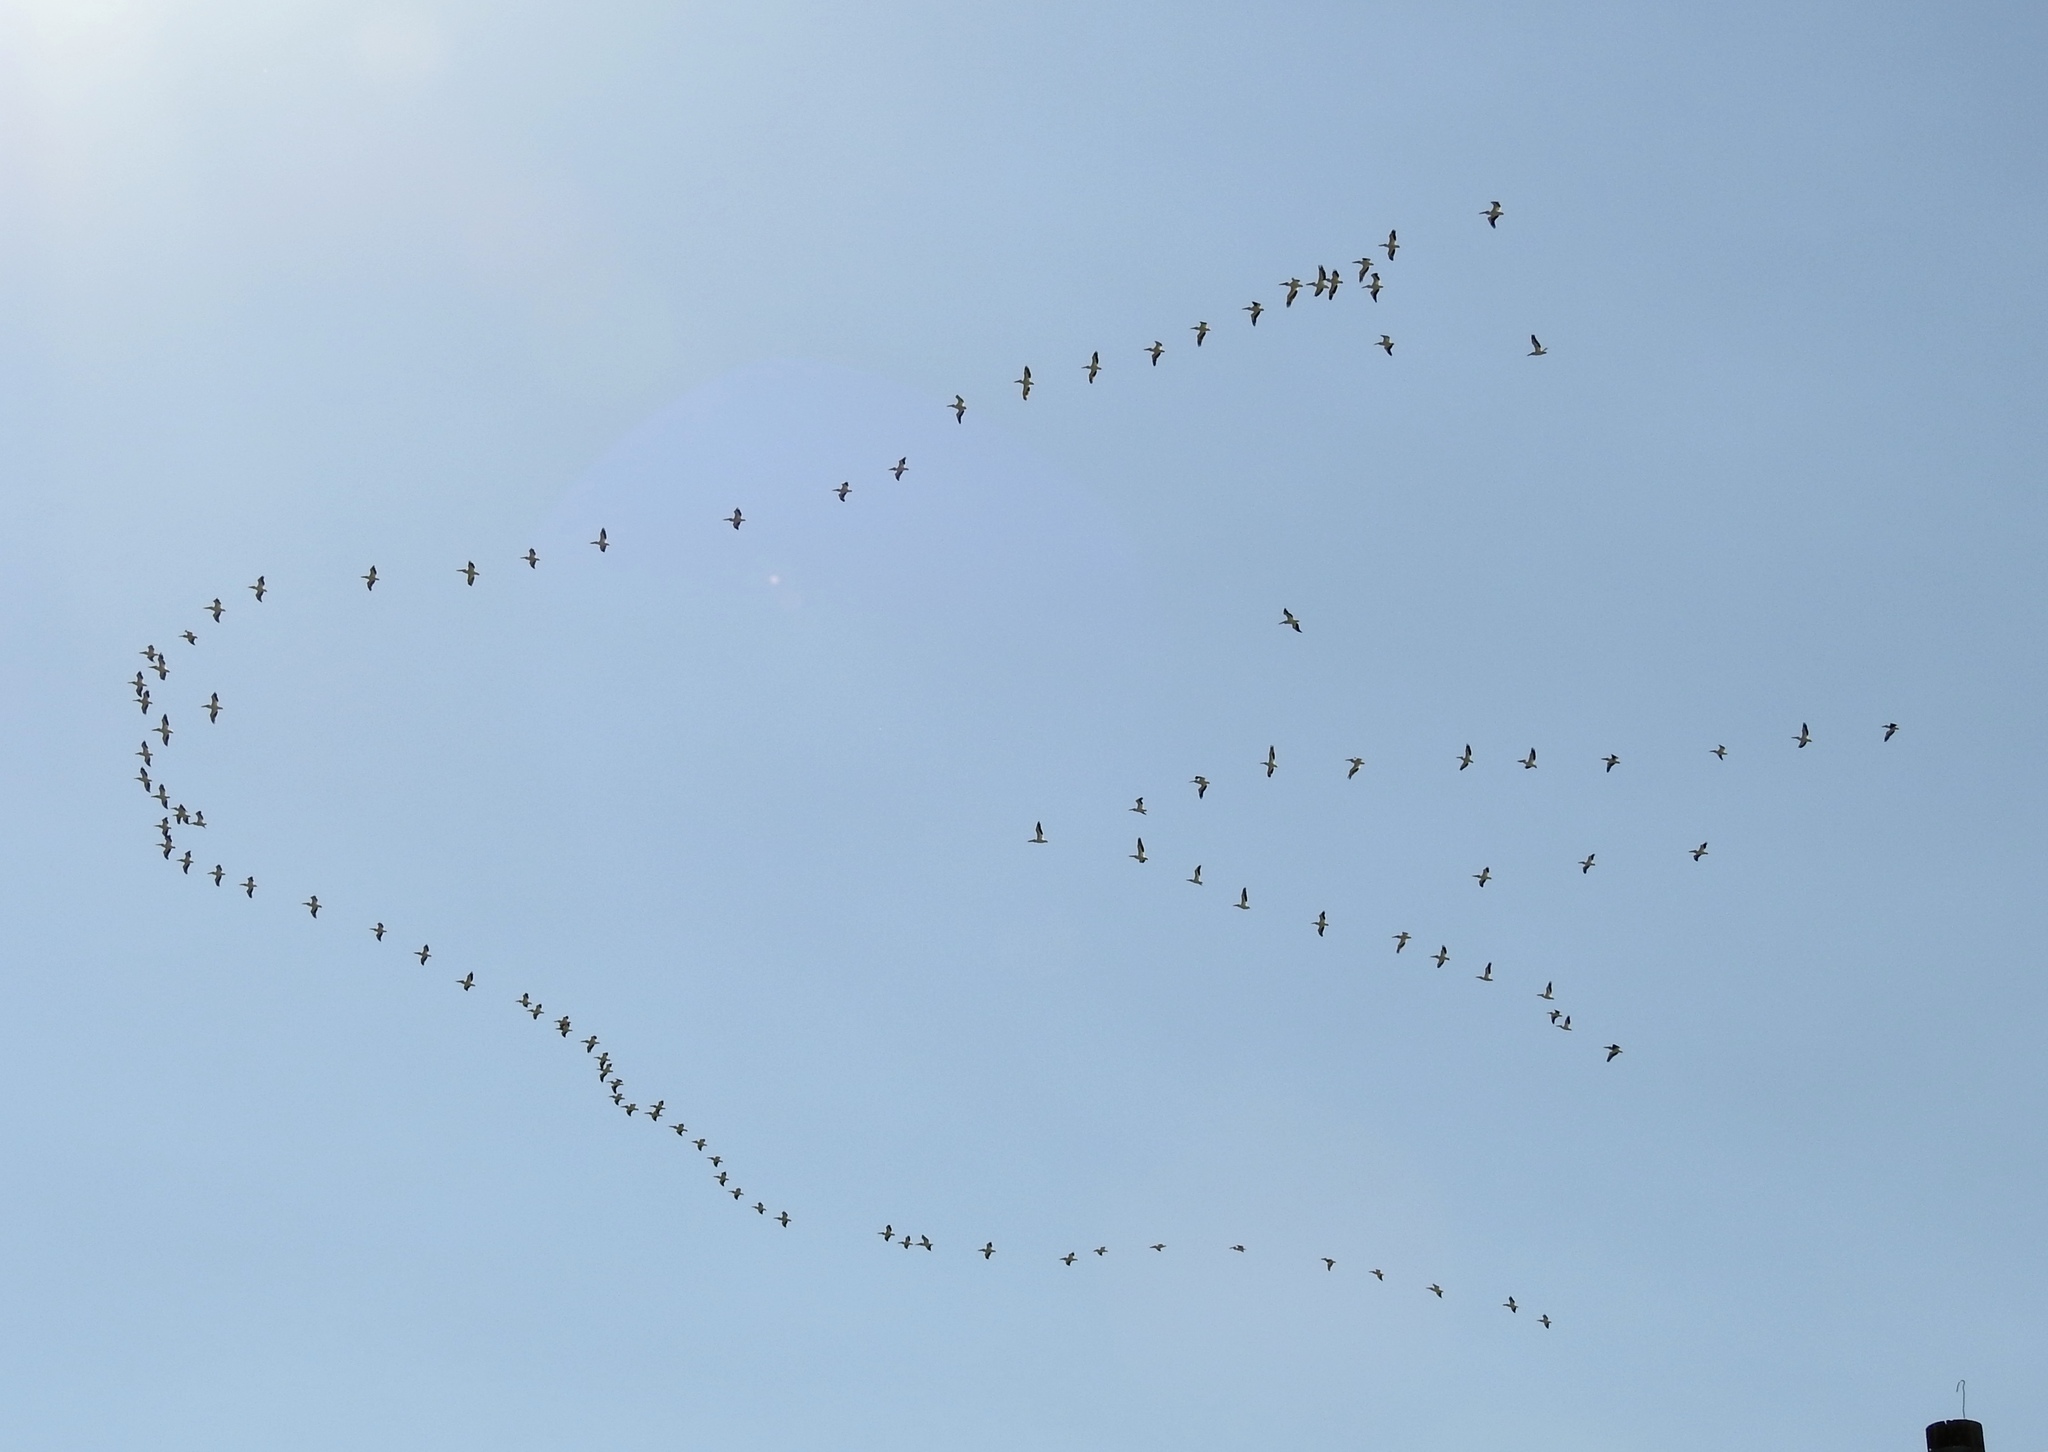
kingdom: Animalia
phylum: Chordata
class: Aves
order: Pelecaniformes
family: Pelecanidae
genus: Pelecanus
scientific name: Pelecanus erythrorhynchos
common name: American white pelican
